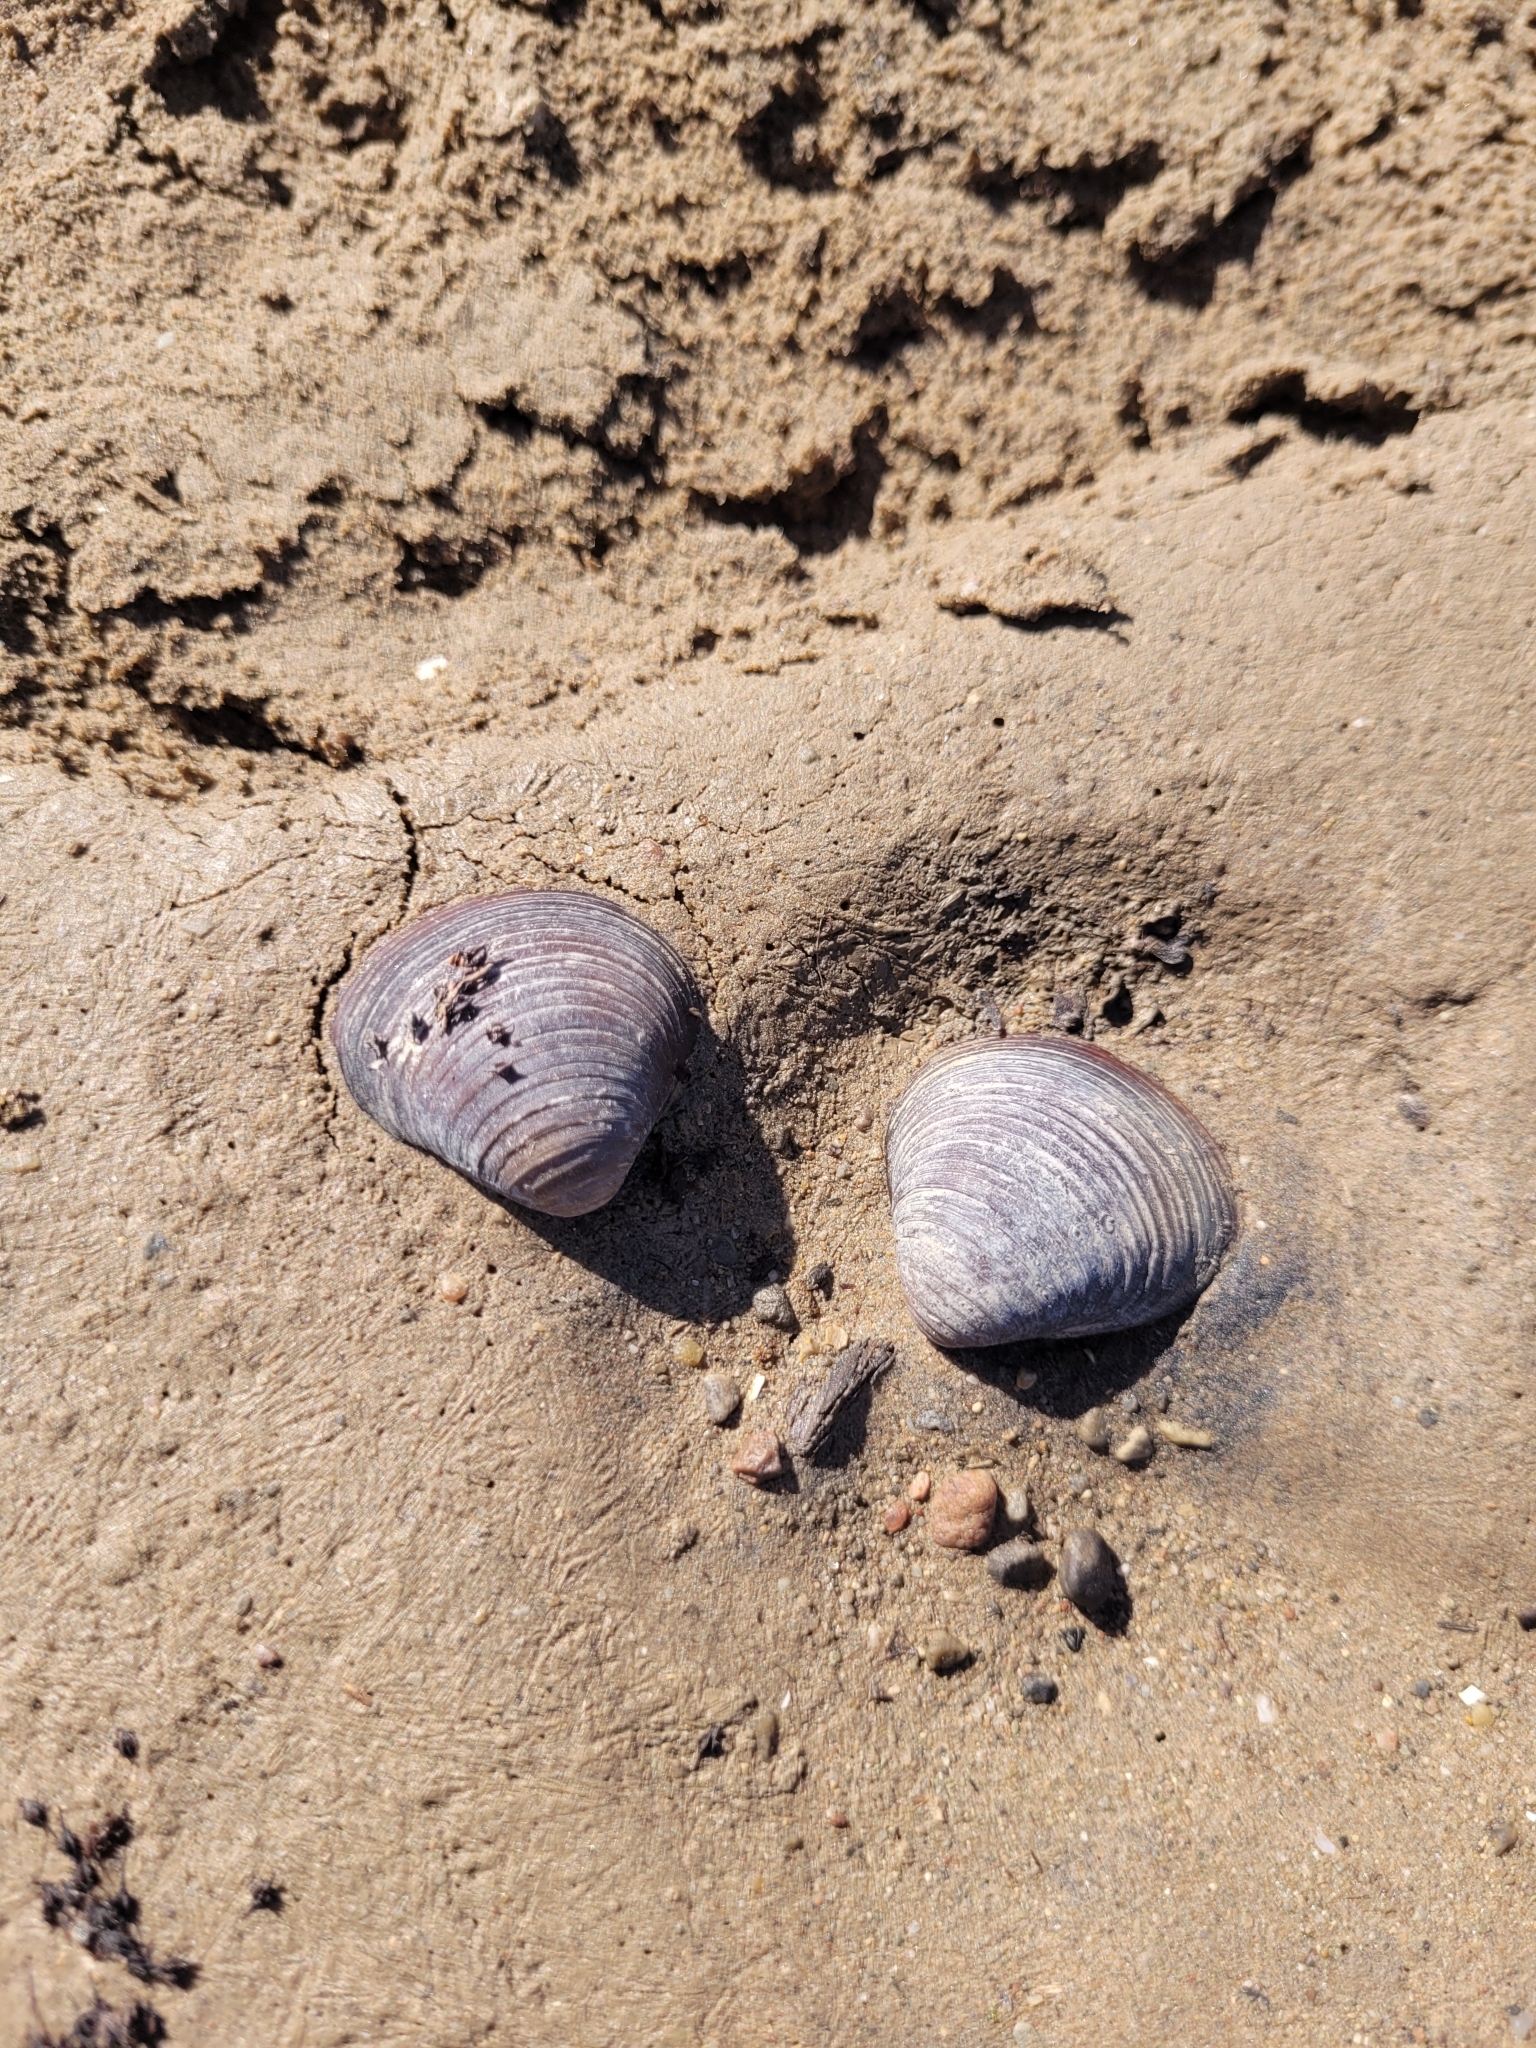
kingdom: Animalia
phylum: Mollusca
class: Bivalvia
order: Venerida
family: Cyrenidae
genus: Corbicula
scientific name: Corbicula fluminea
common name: Asian clam
